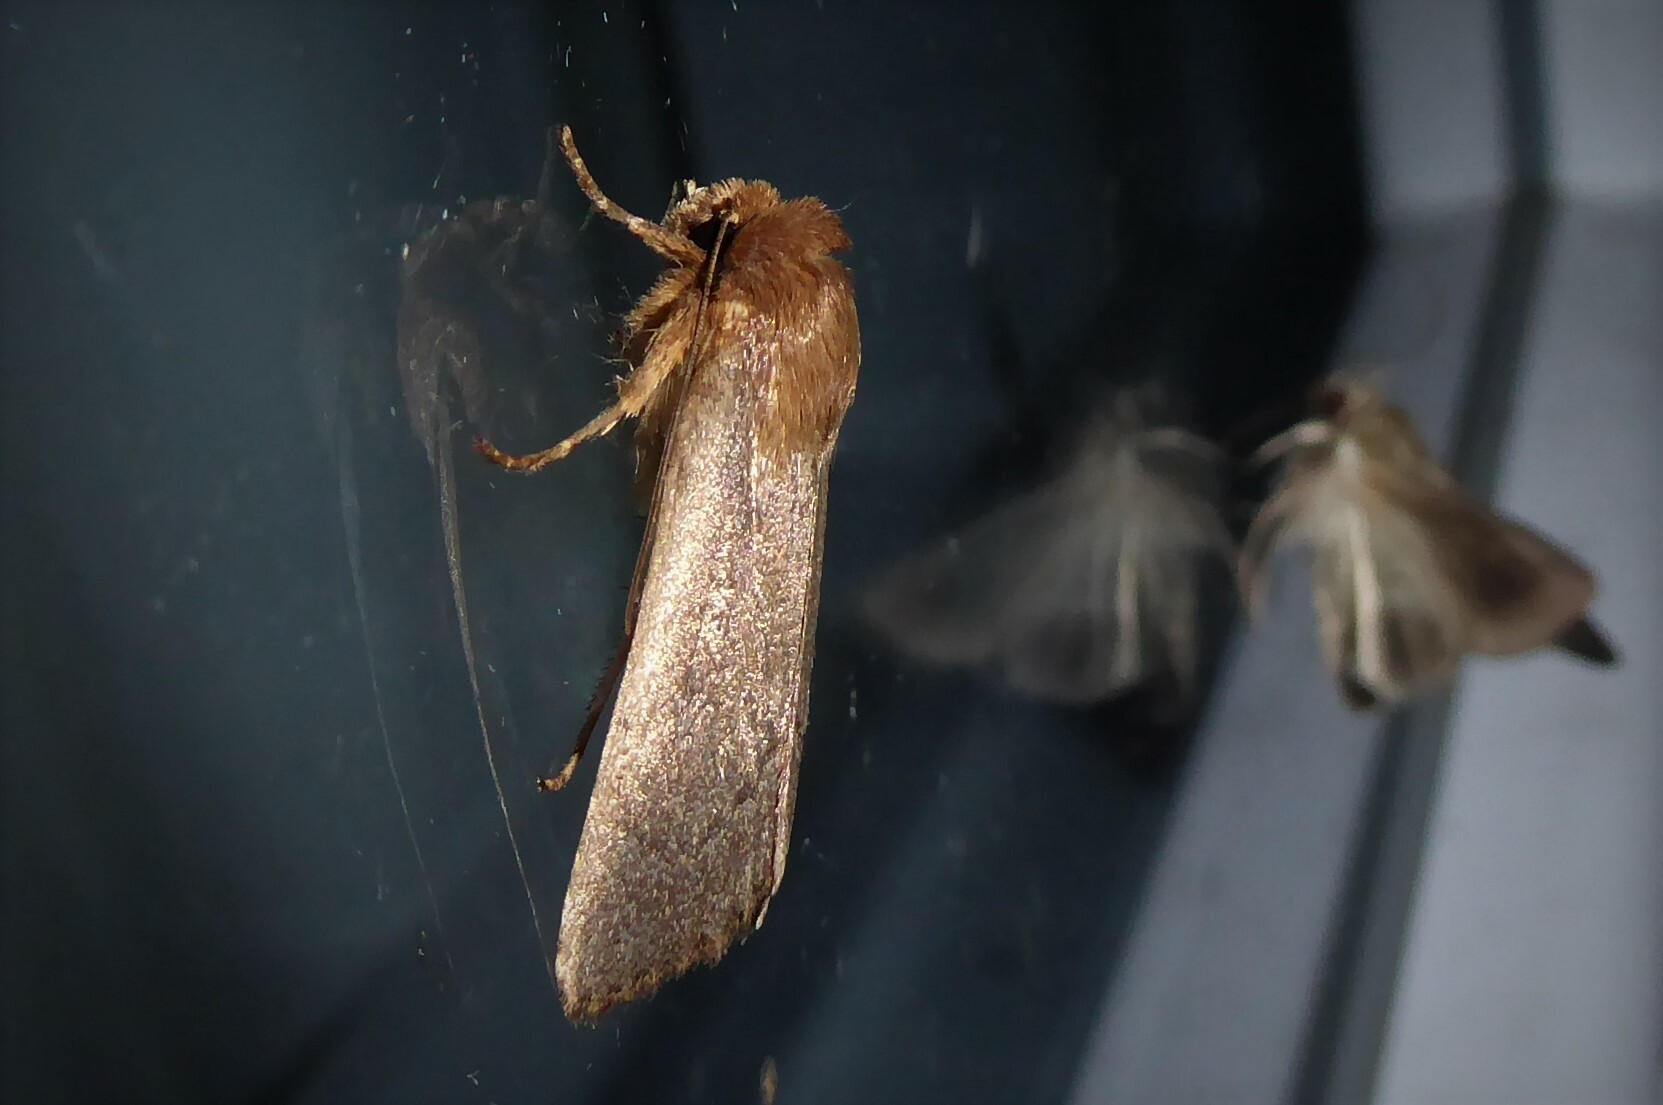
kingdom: Animalia
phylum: Arthropoda
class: Insecta
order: Lepidoptera
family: Noctuidae
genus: Bityla
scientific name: Bityla defigurata
